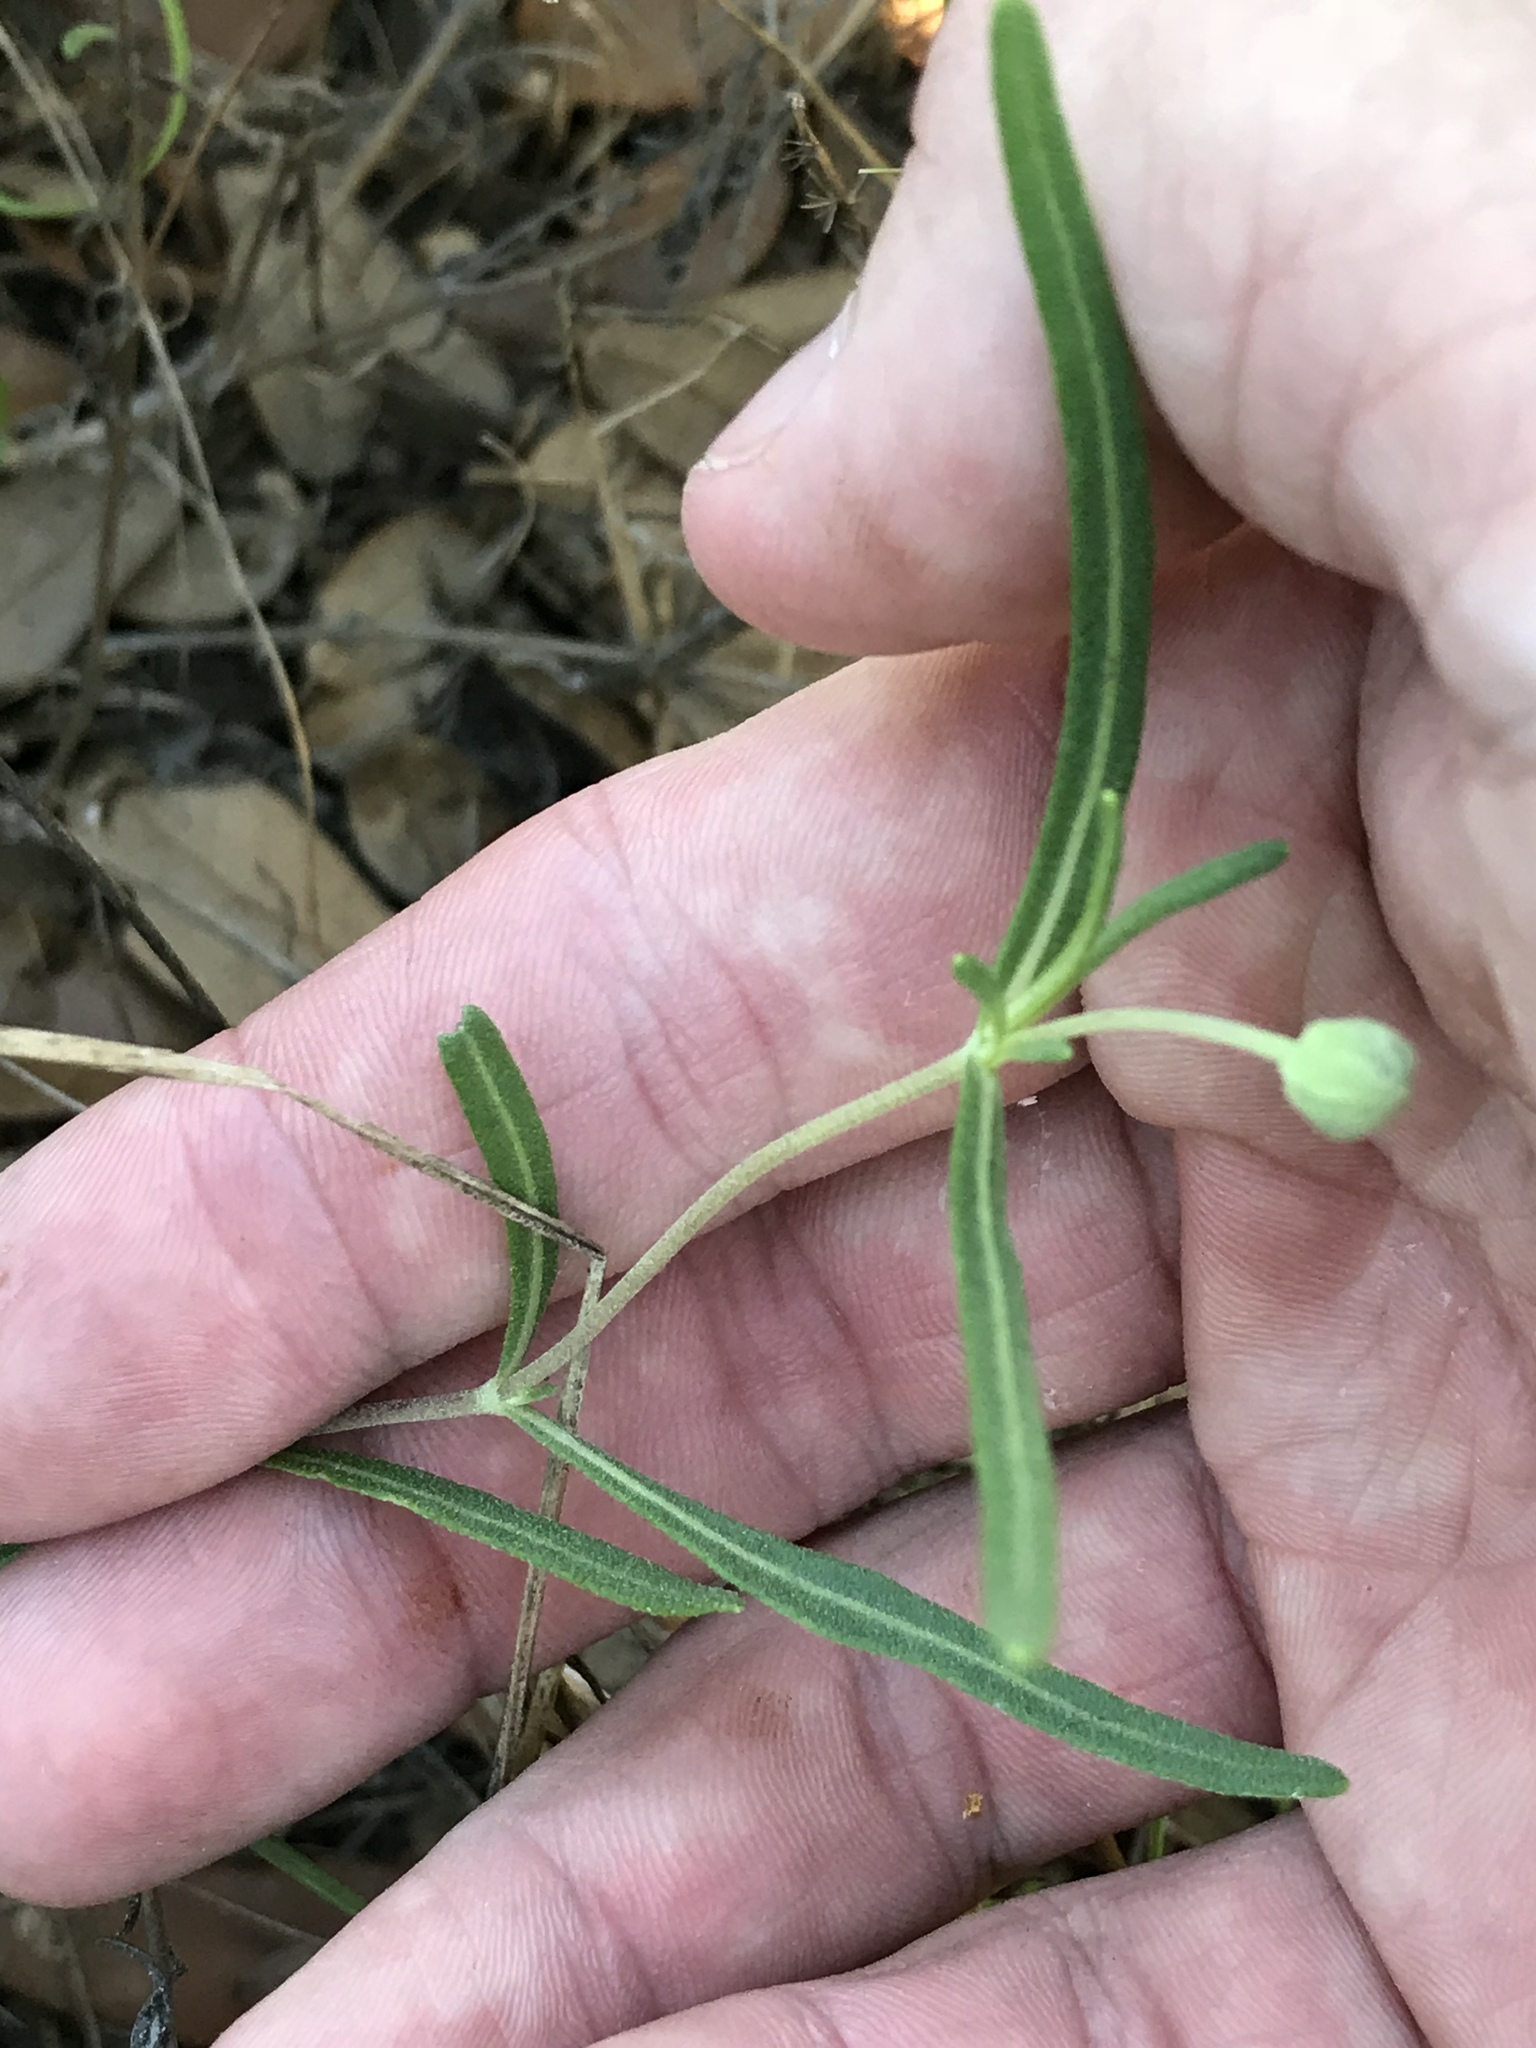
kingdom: Plantae
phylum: Tracheophyta
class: Magnoliopsida
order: Asterales
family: Asteraceae
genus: Melampodium
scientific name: Melampodium leucanthum
